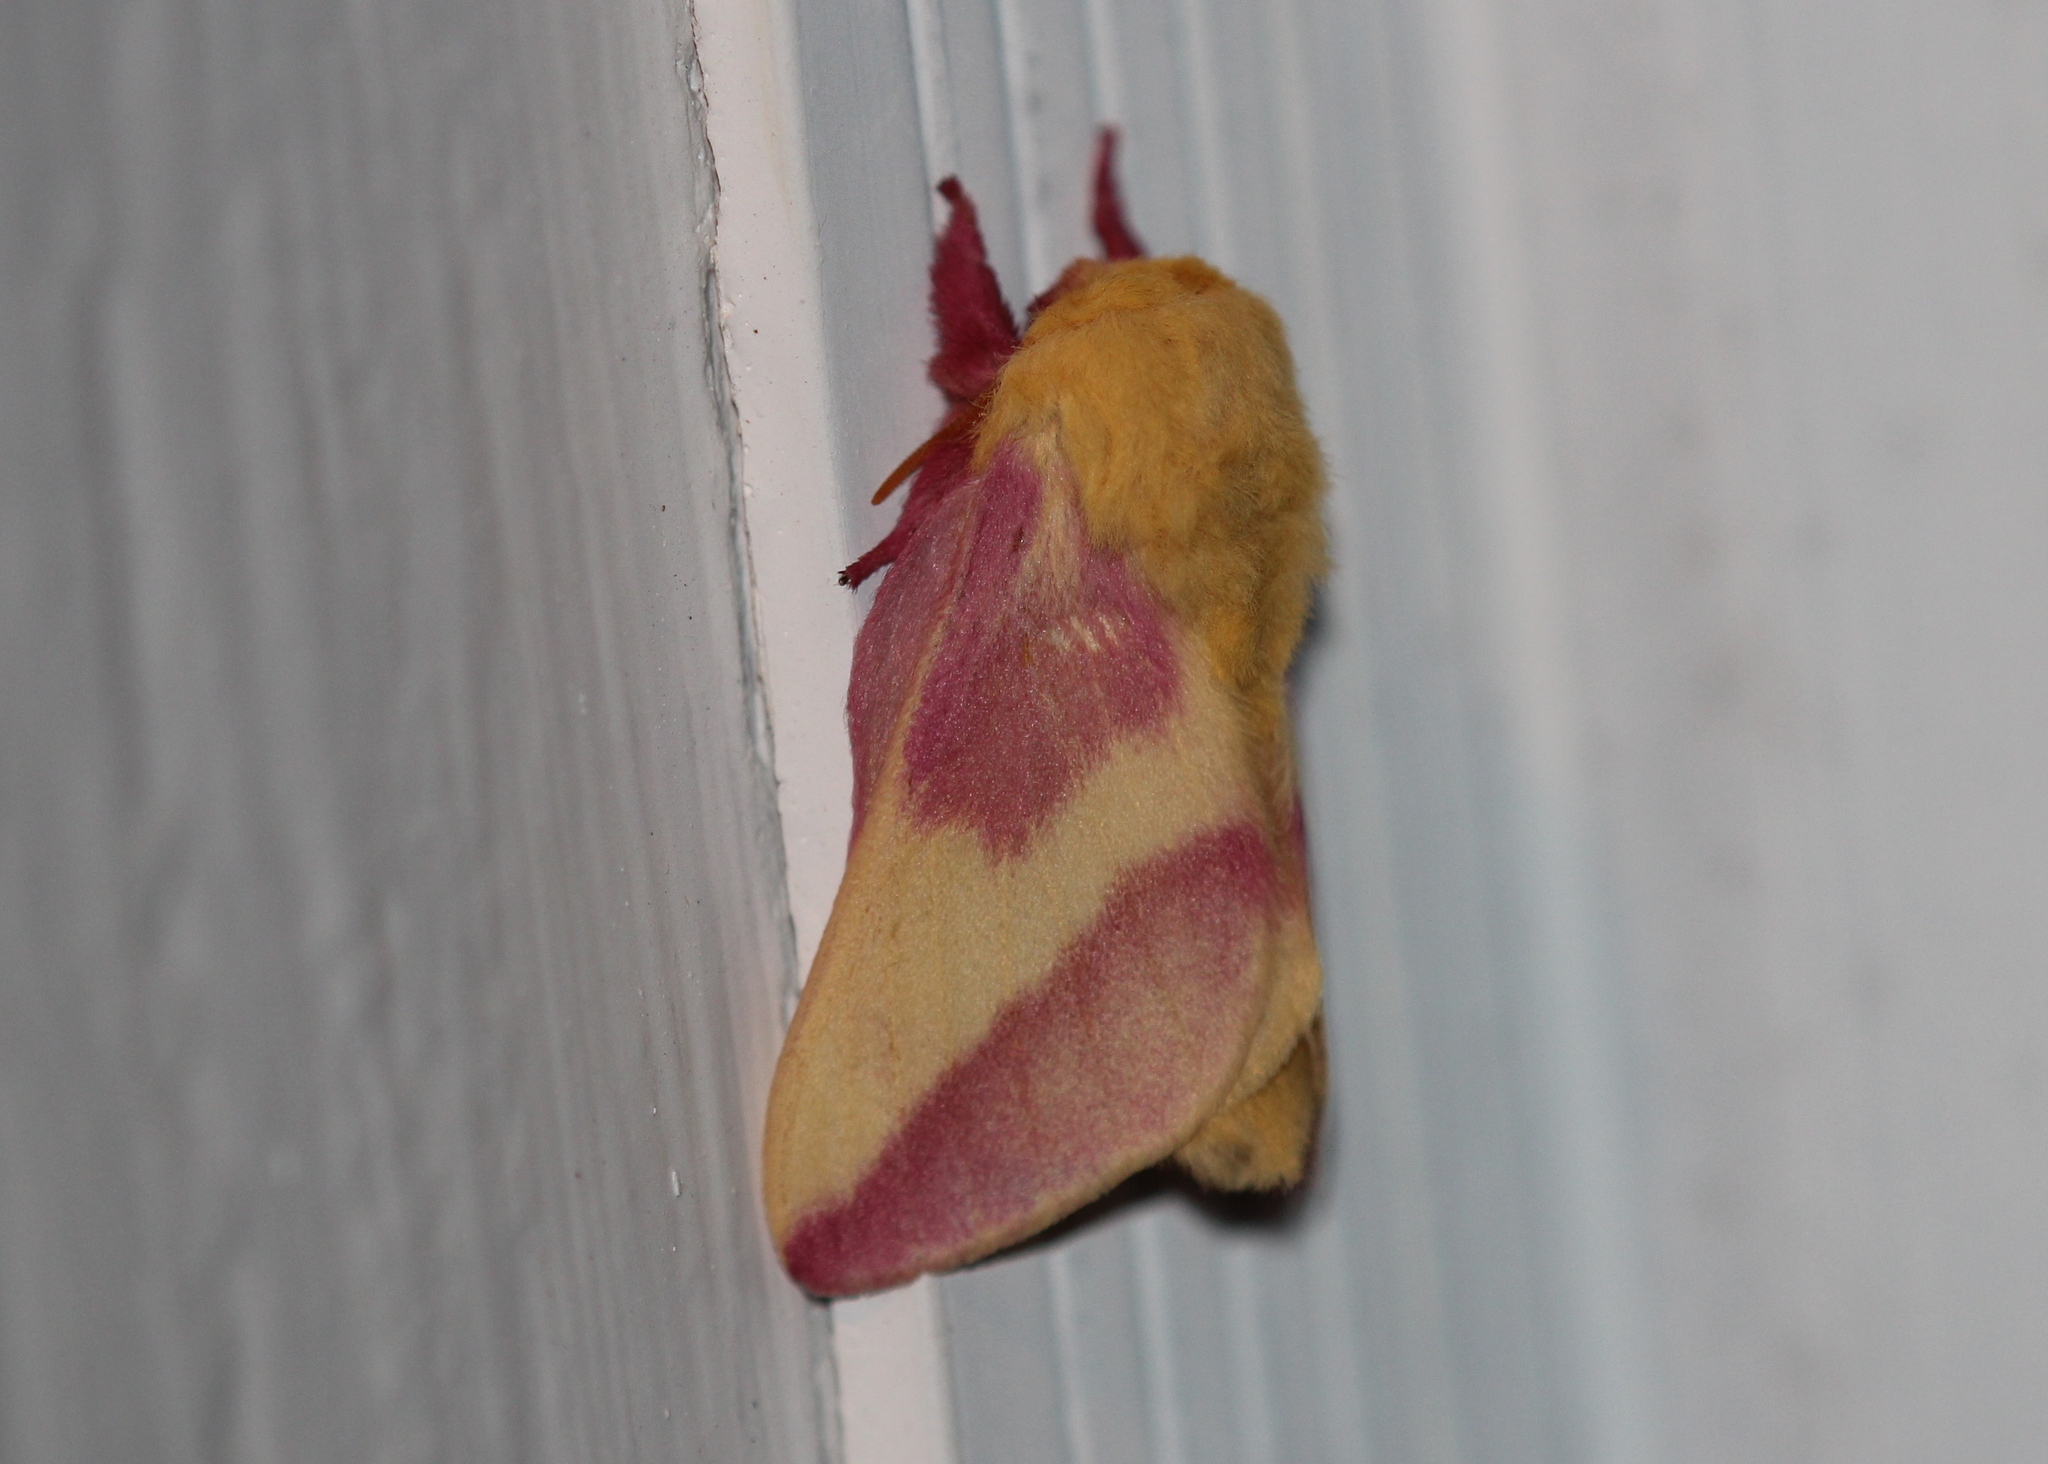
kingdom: Animalia
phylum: Arthropoda
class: Insecta
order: Lepidoptera
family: Saturniidae
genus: Dryocampa
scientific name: Dryocampa rubicunda
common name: Rosy maple moth
